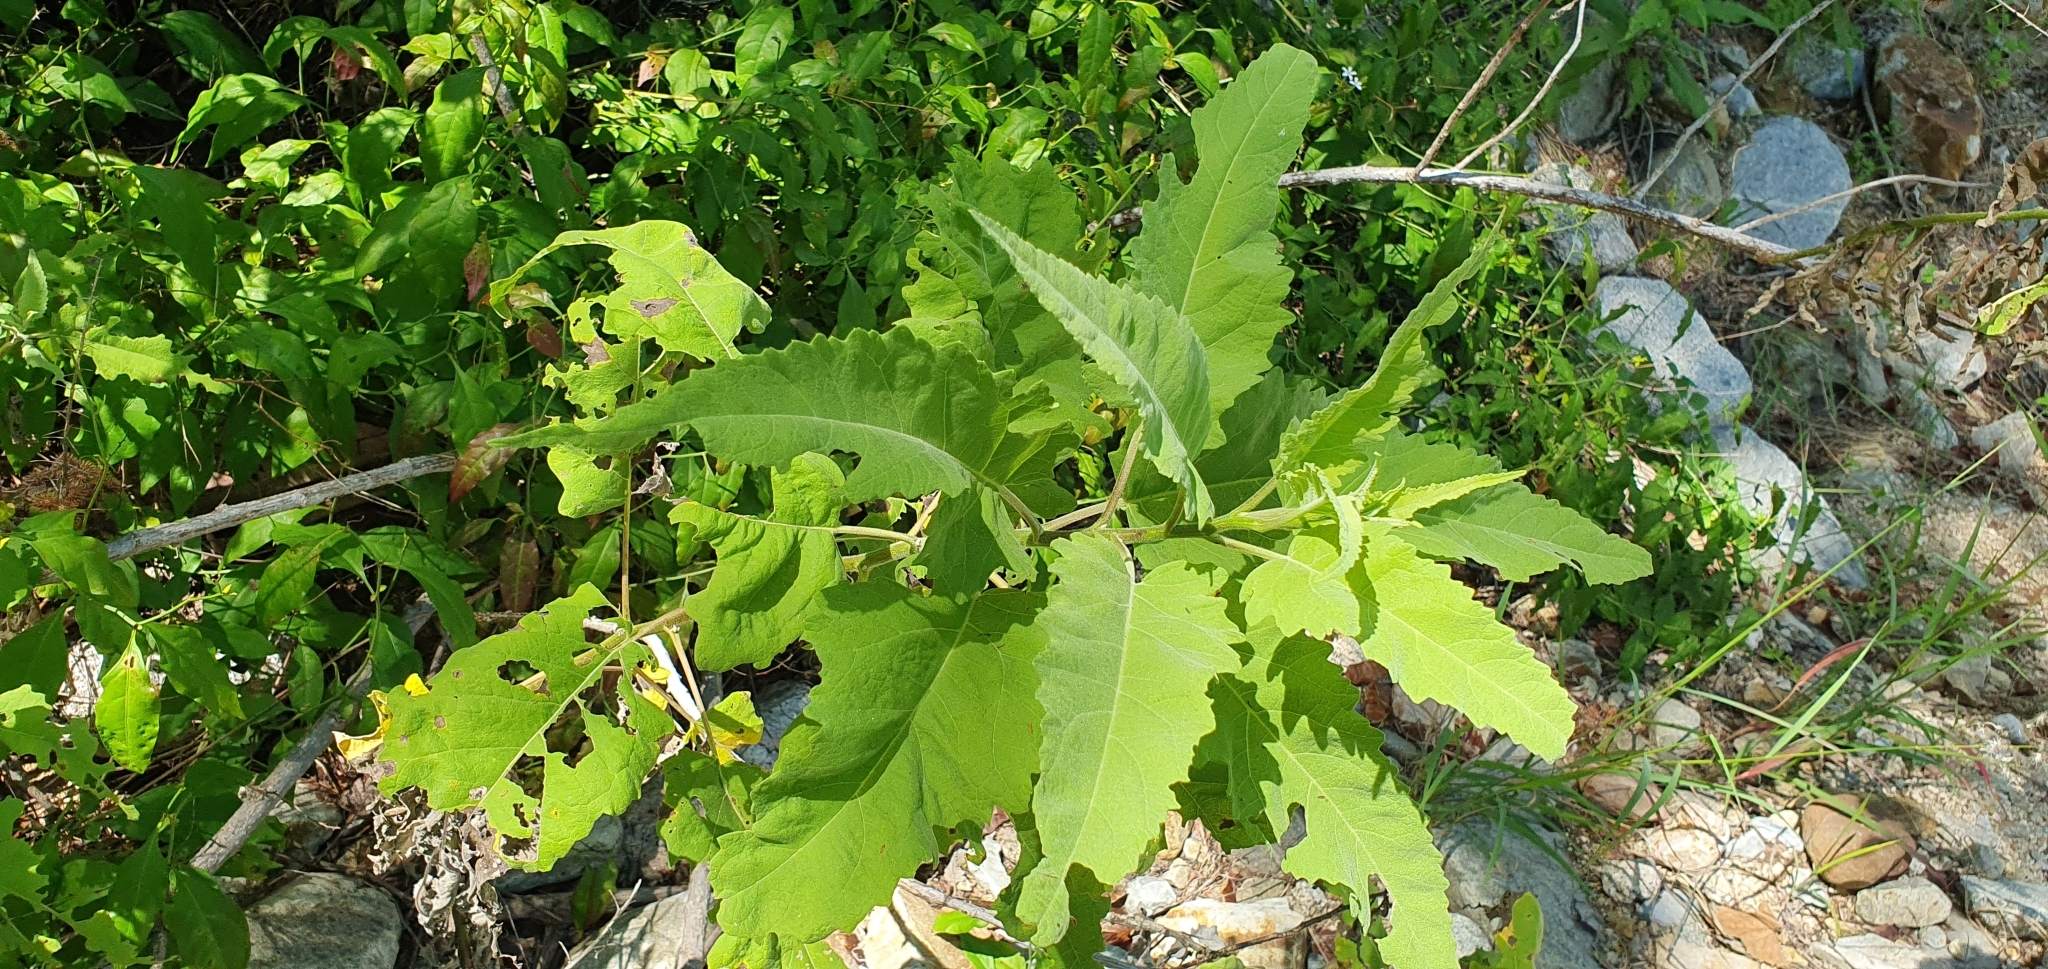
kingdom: Plantae
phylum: Tracheophyta
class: Magnoliopsida
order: Lamiales
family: Bignoniaceae
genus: Tecoma
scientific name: Tecoma stans
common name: Yellow trumpetbush
